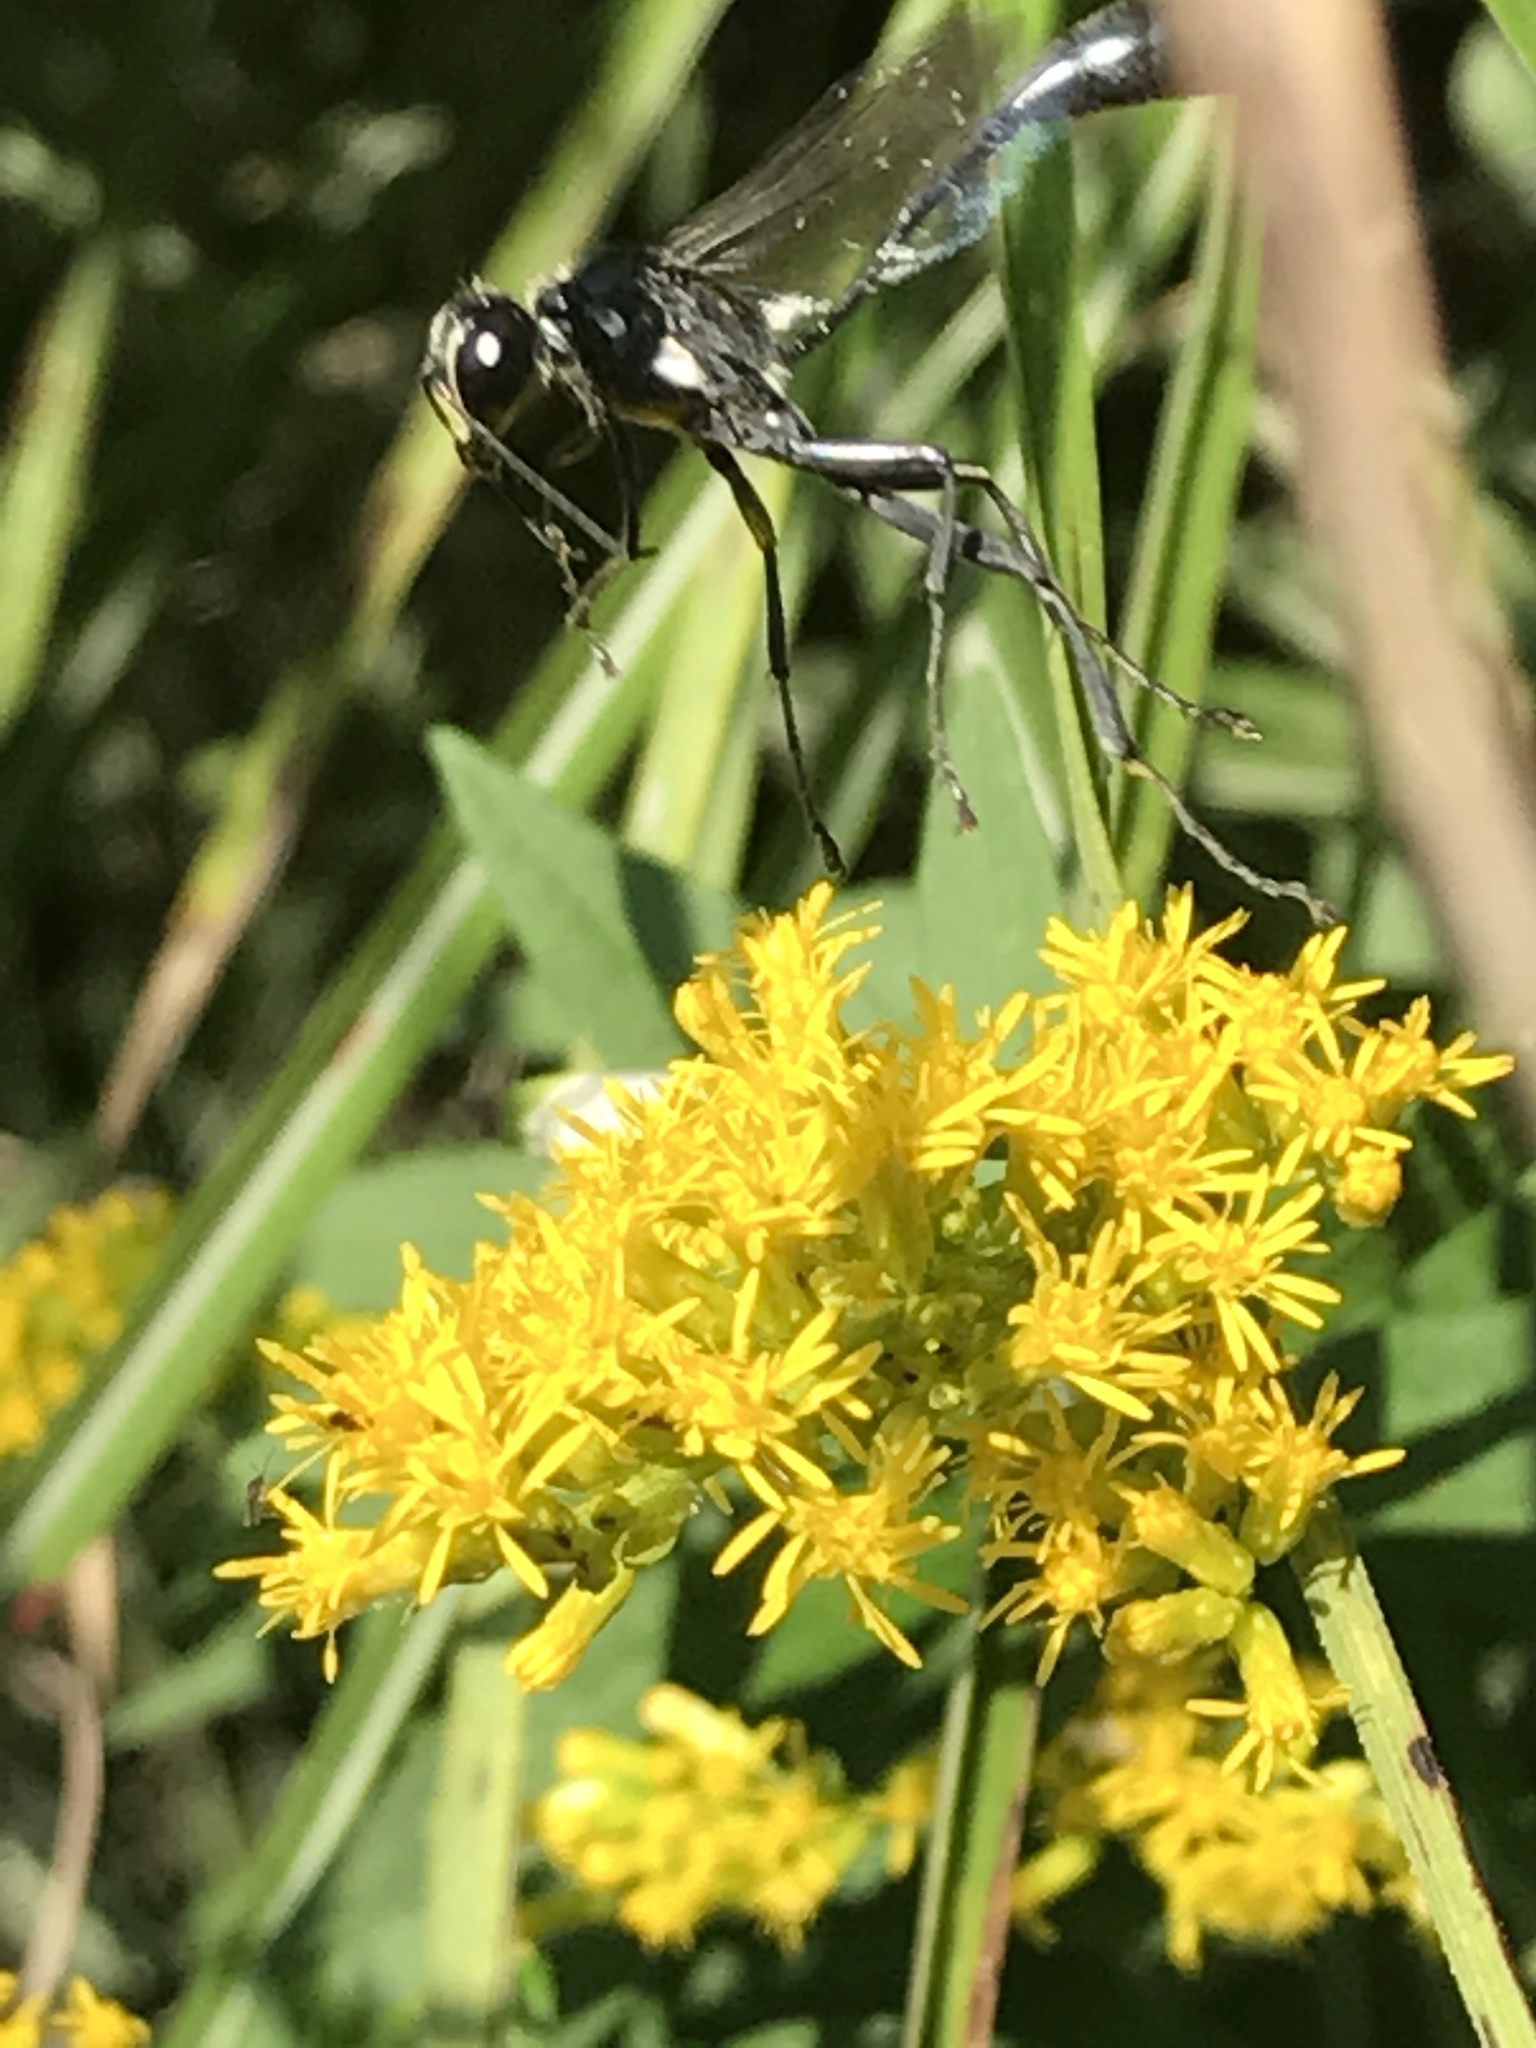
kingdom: Animalia
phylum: Arthropoda
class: Insecta
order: Hymenoptera
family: Sphecidae
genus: Eremnophila
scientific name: Eremnophila aureonotata
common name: Gold-marked thread-waisted wasp
